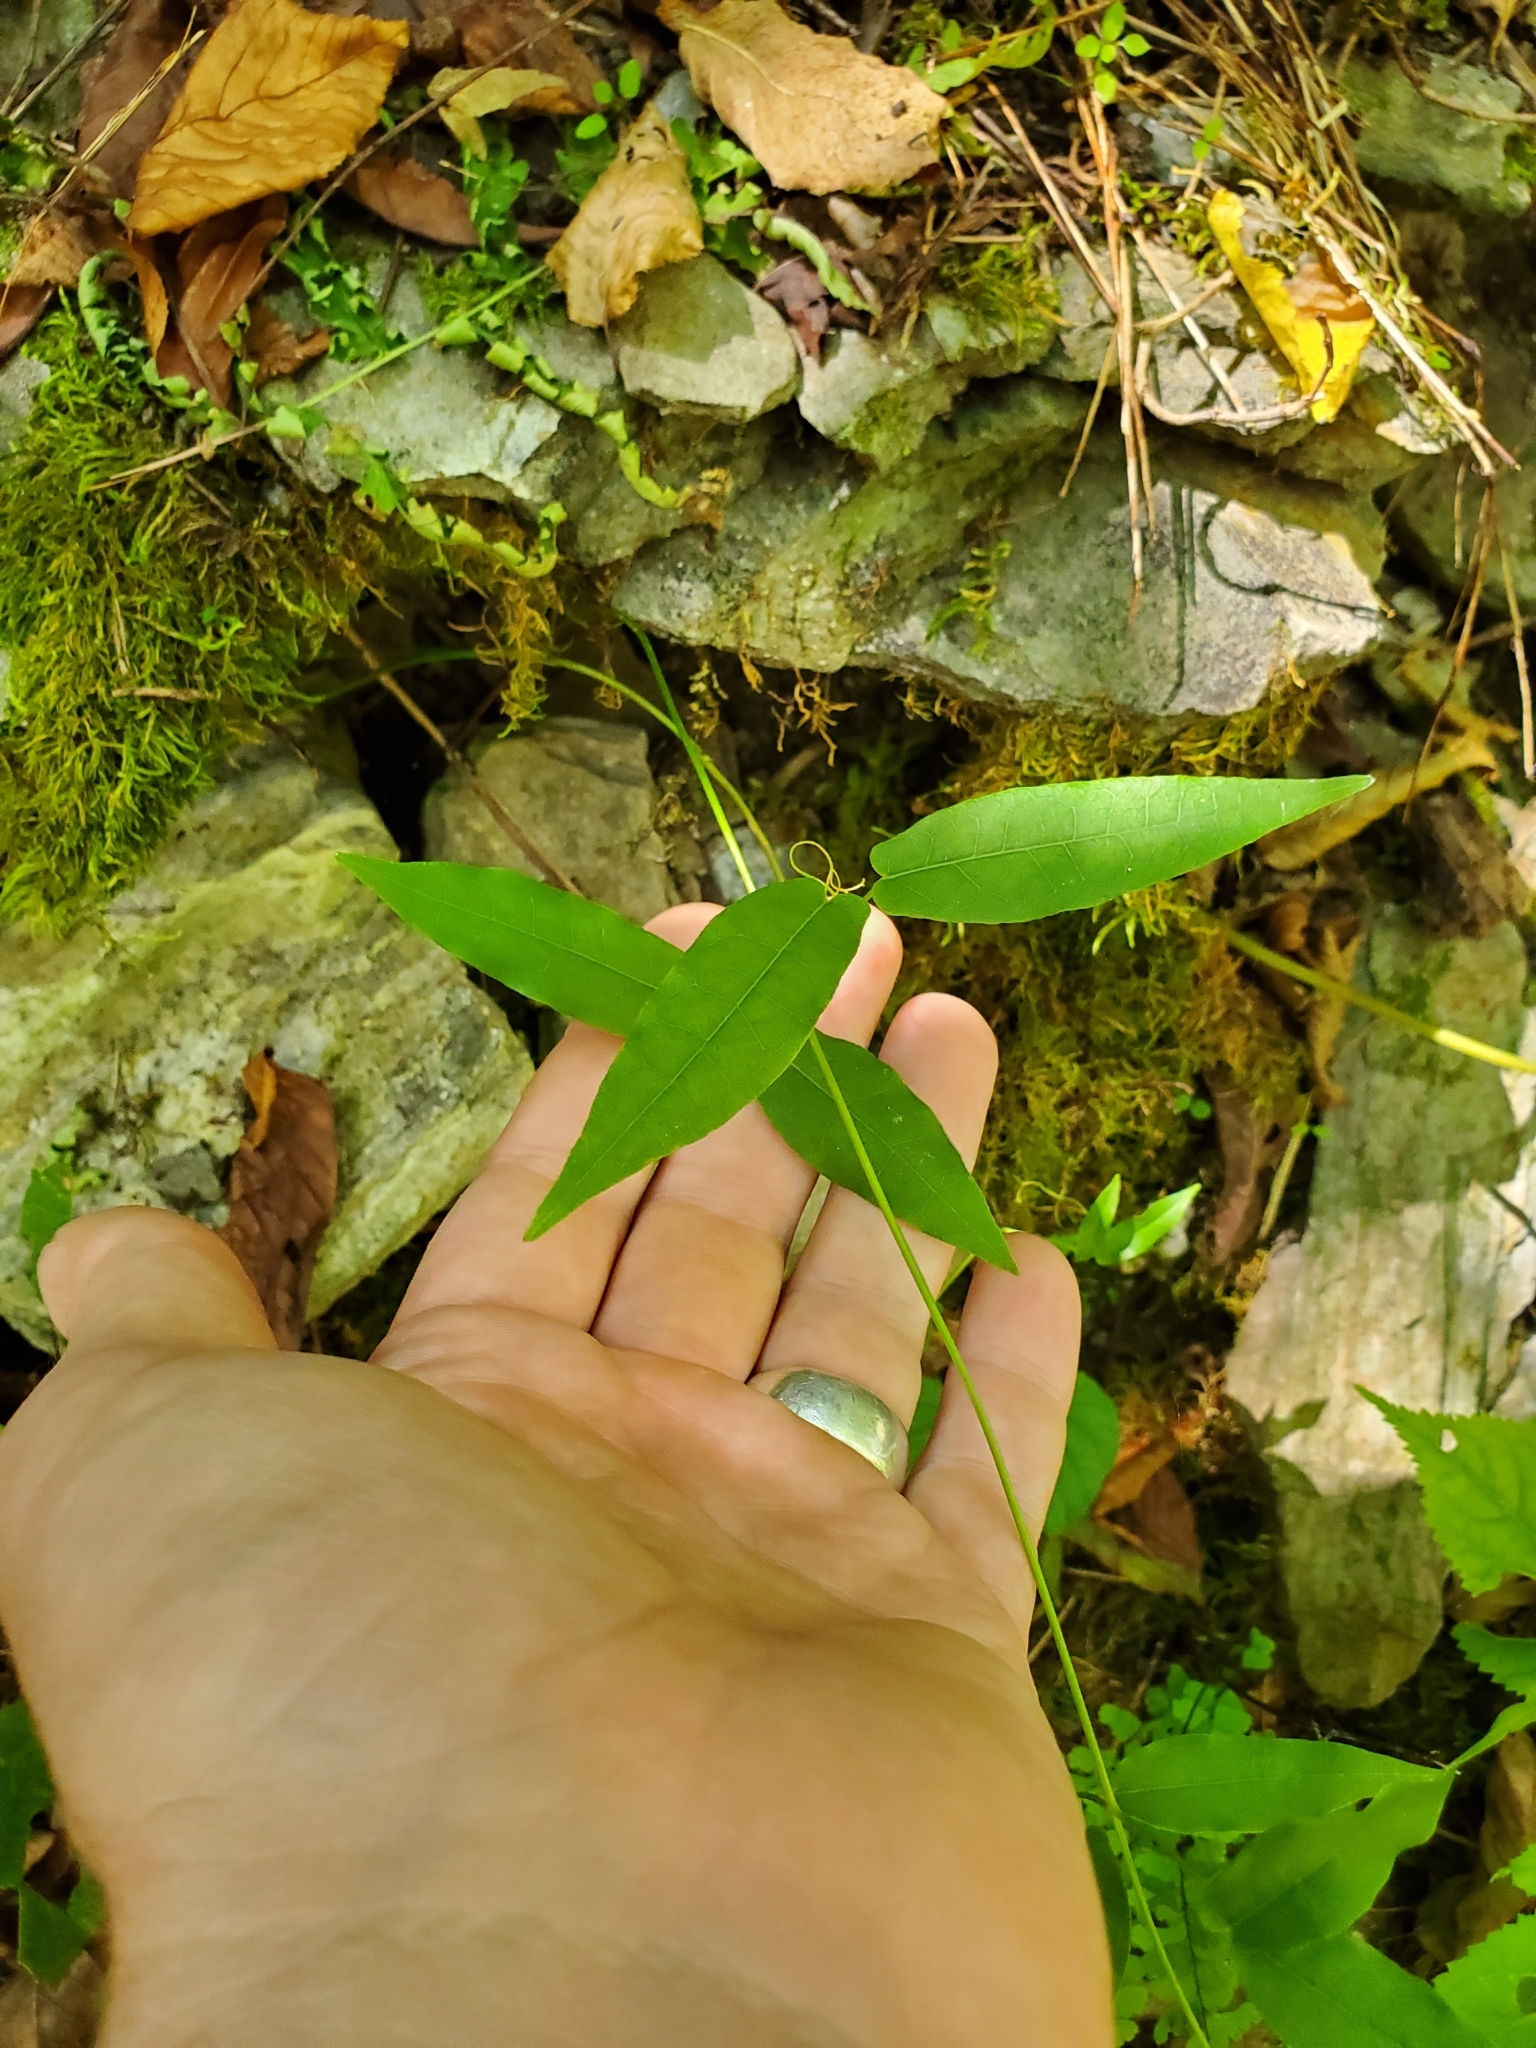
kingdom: Plantae
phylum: Tracheophyta
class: Magnoliopsida
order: Lamiales
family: Bignoniaceae
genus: Bignonia
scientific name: Bignonia capreolata
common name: Crossvine
